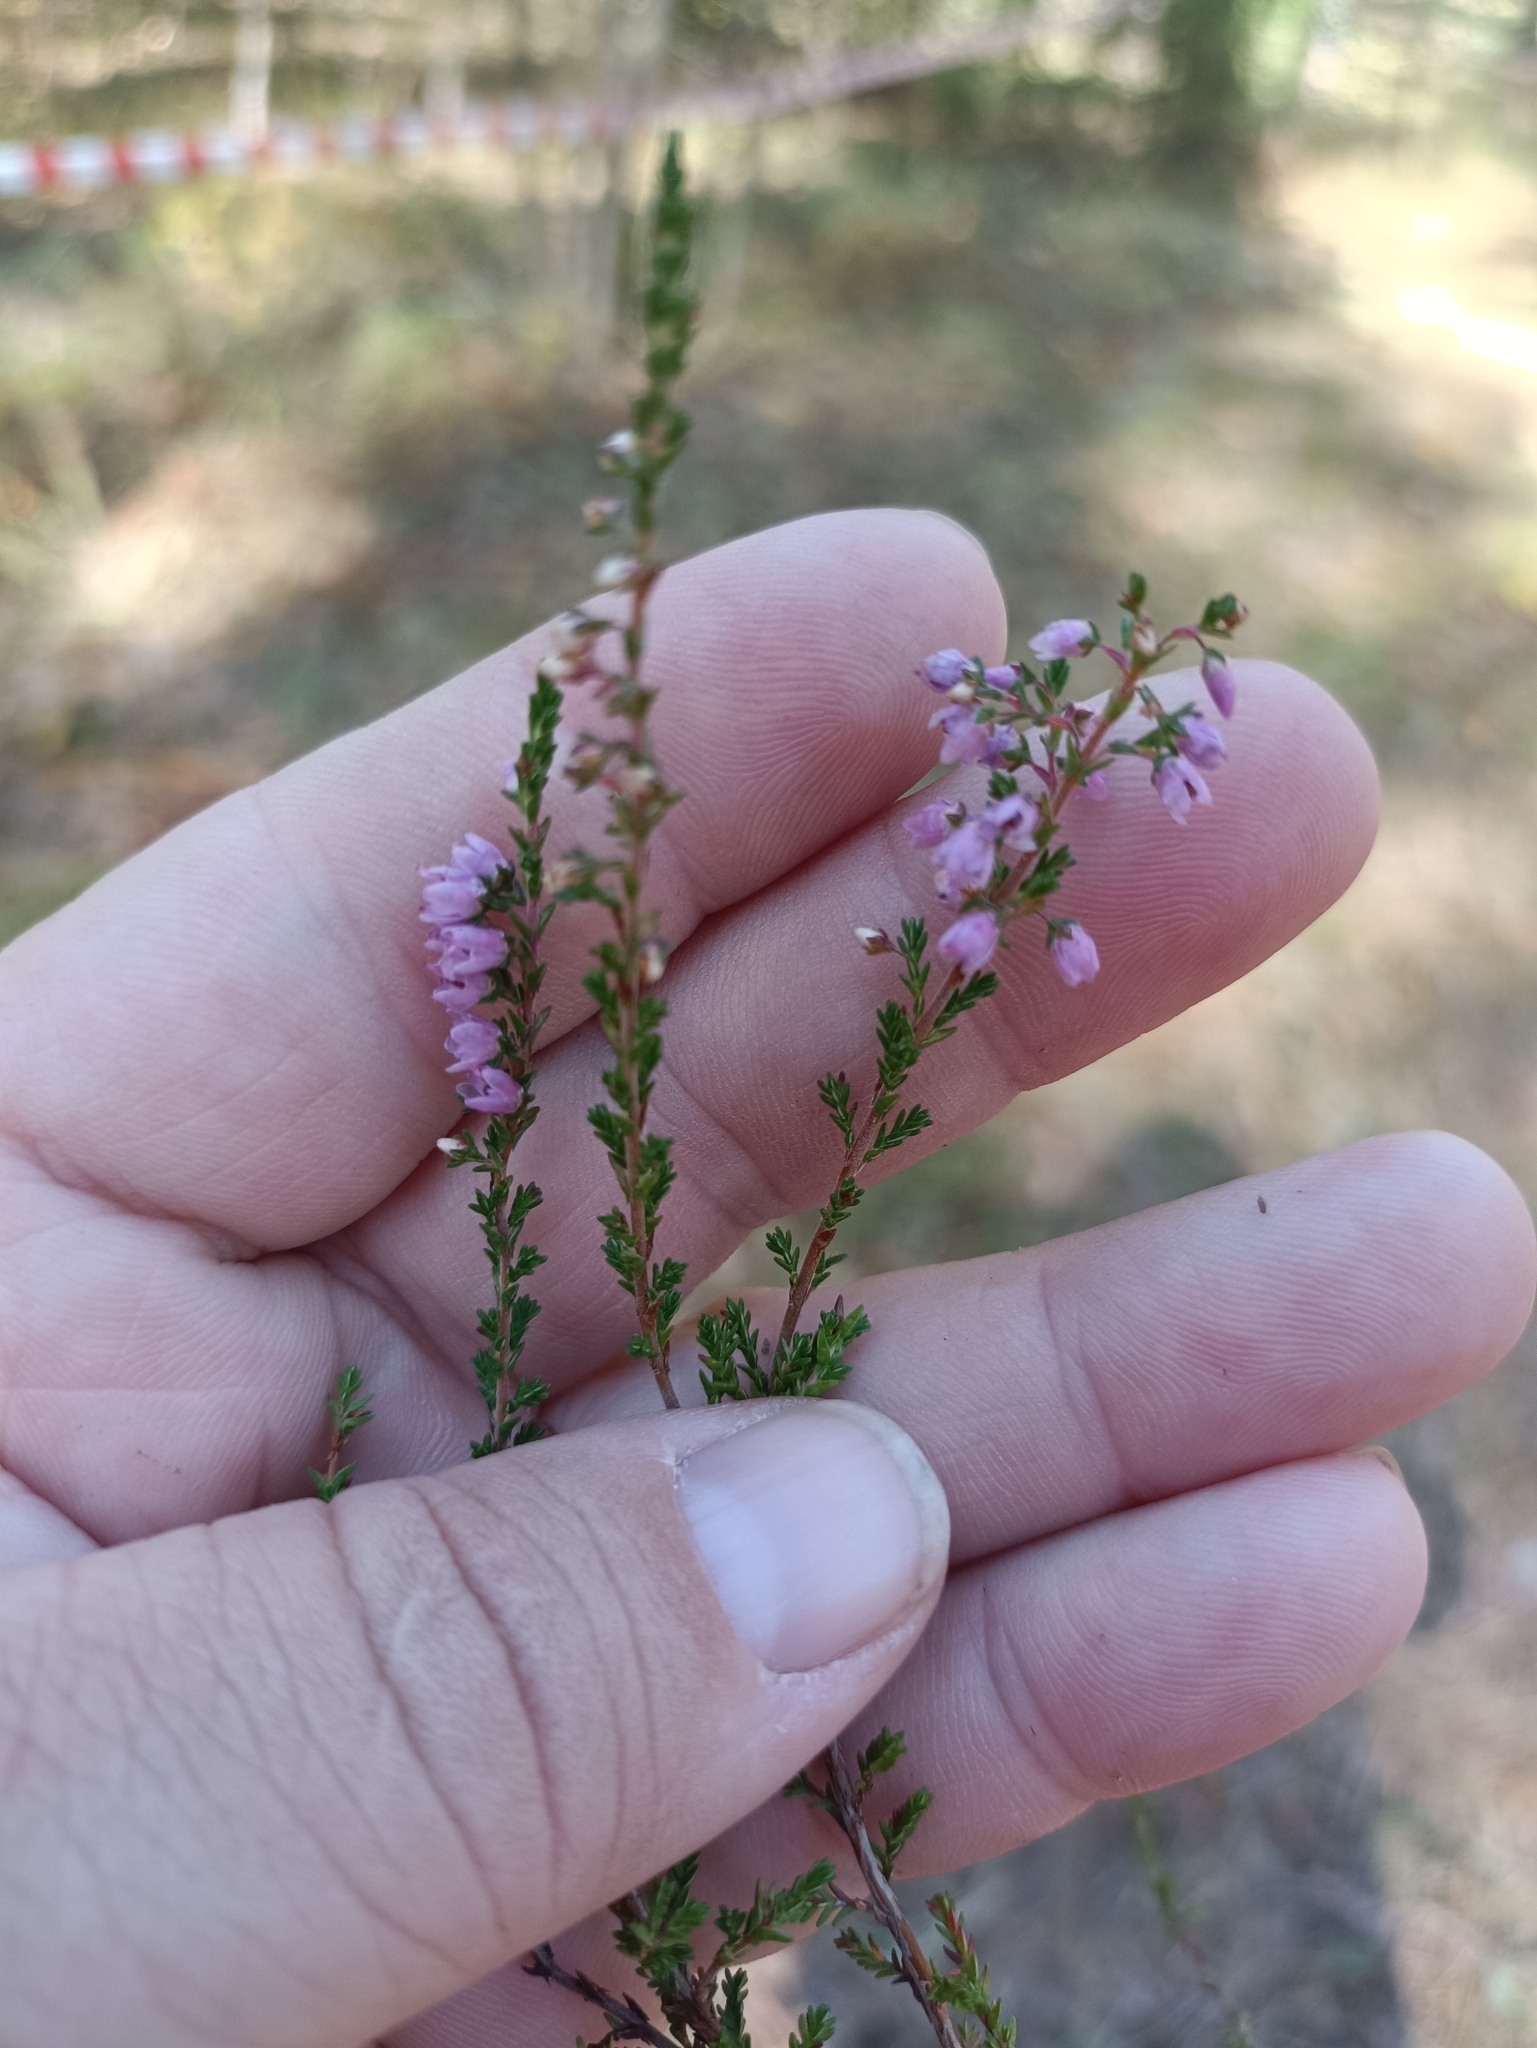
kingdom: Plantae
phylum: Tracheophyta
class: Magnoliopsida
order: Ericales
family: Ericaceae
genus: Calluna
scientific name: Calluna vulgaris
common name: Heather
